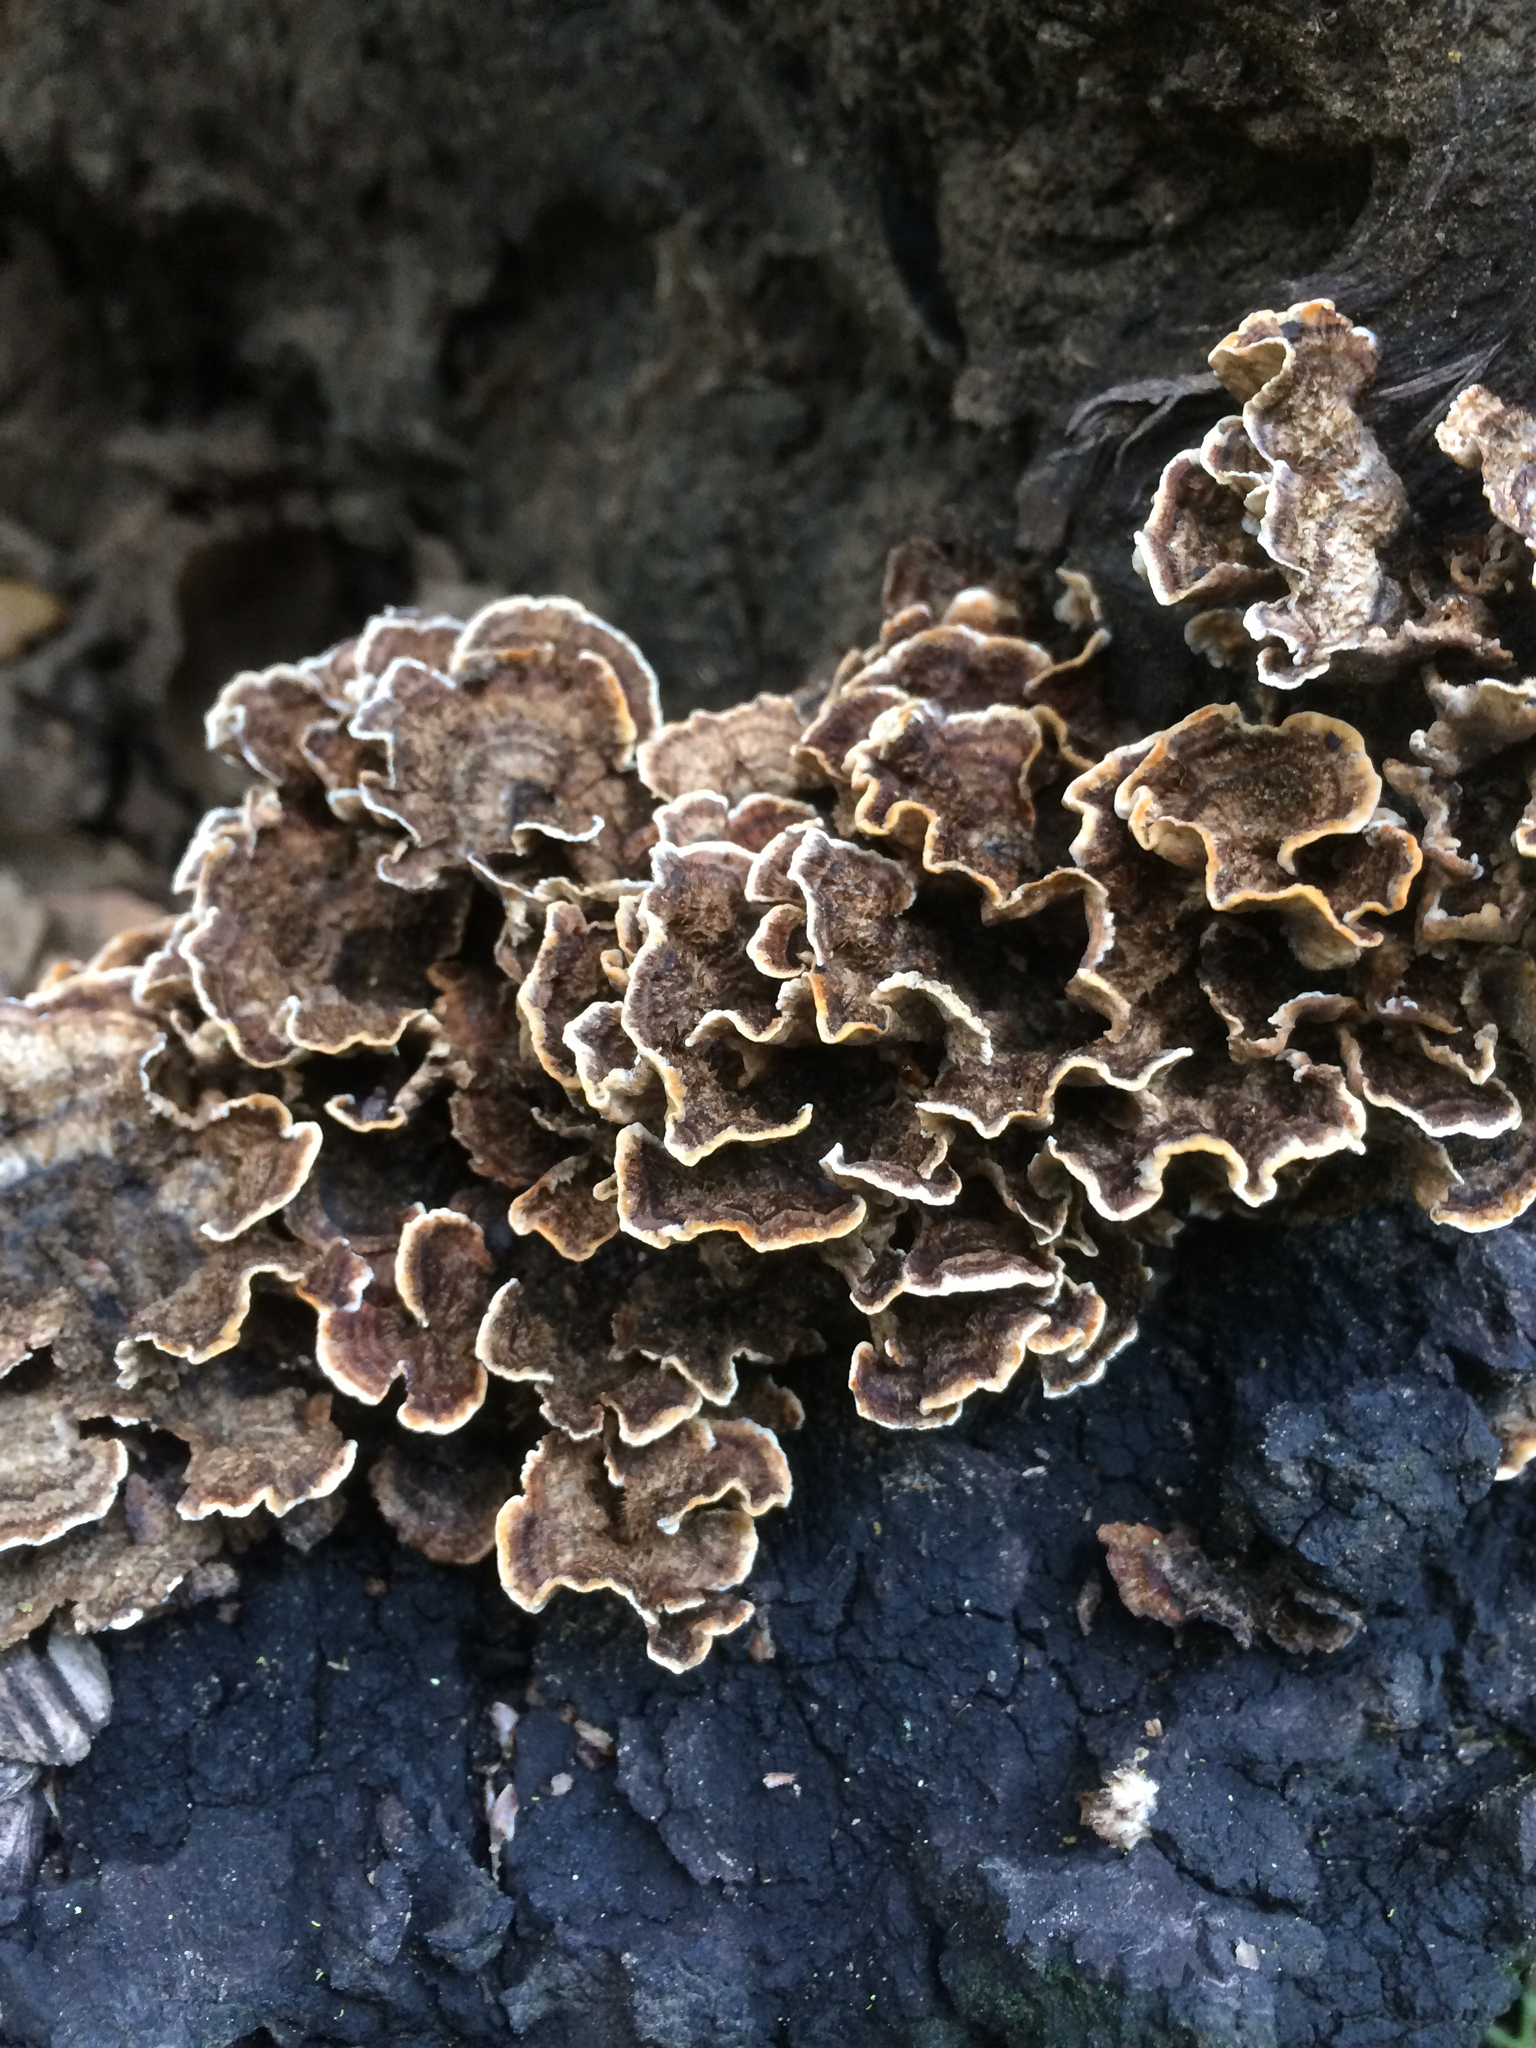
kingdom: Fungi
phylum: Basidiomycota
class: Agaricomycetes
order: Russulales
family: Stereaceae
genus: Stereum
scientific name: Stereum hirsutum
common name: Hairy curtain crust
